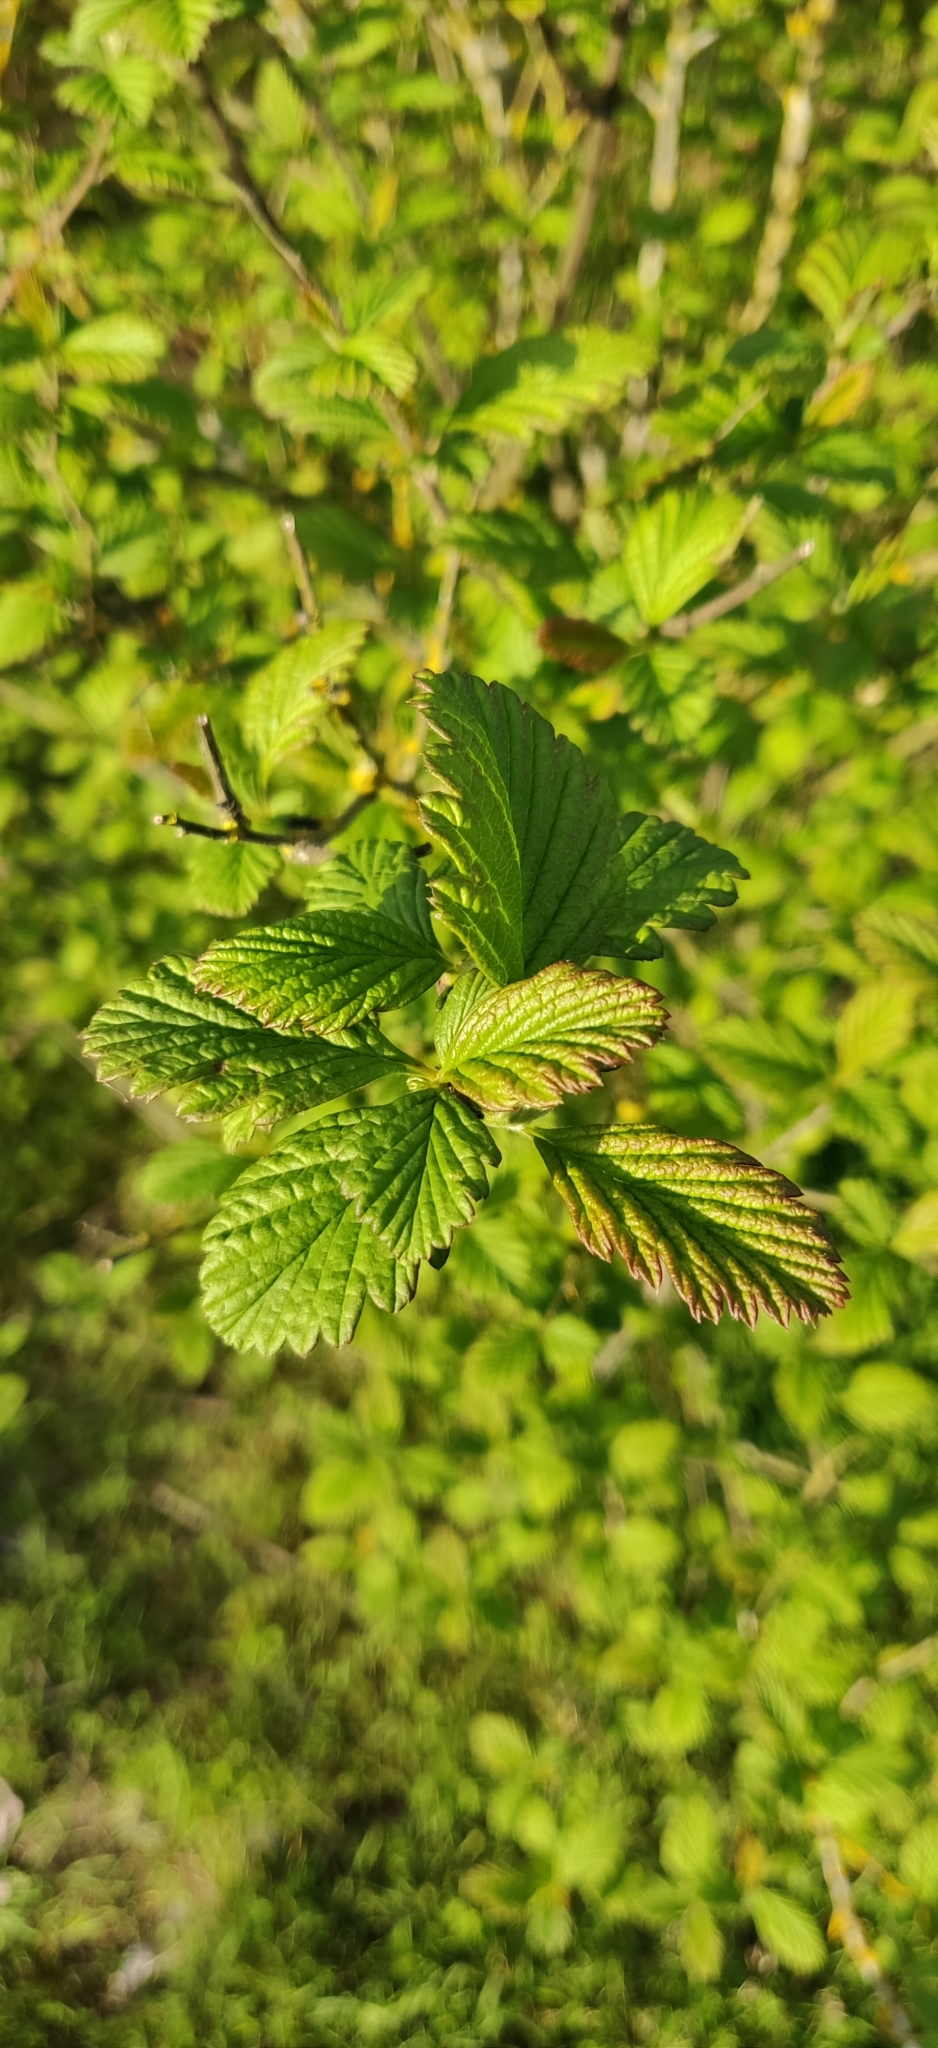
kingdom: Plantae
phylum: Tracheophyta
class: Magnoliopsida
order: Rosales
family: Rosaceae
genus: Holodiscus
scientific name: Holodiscus discolor
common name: Oceanspray
